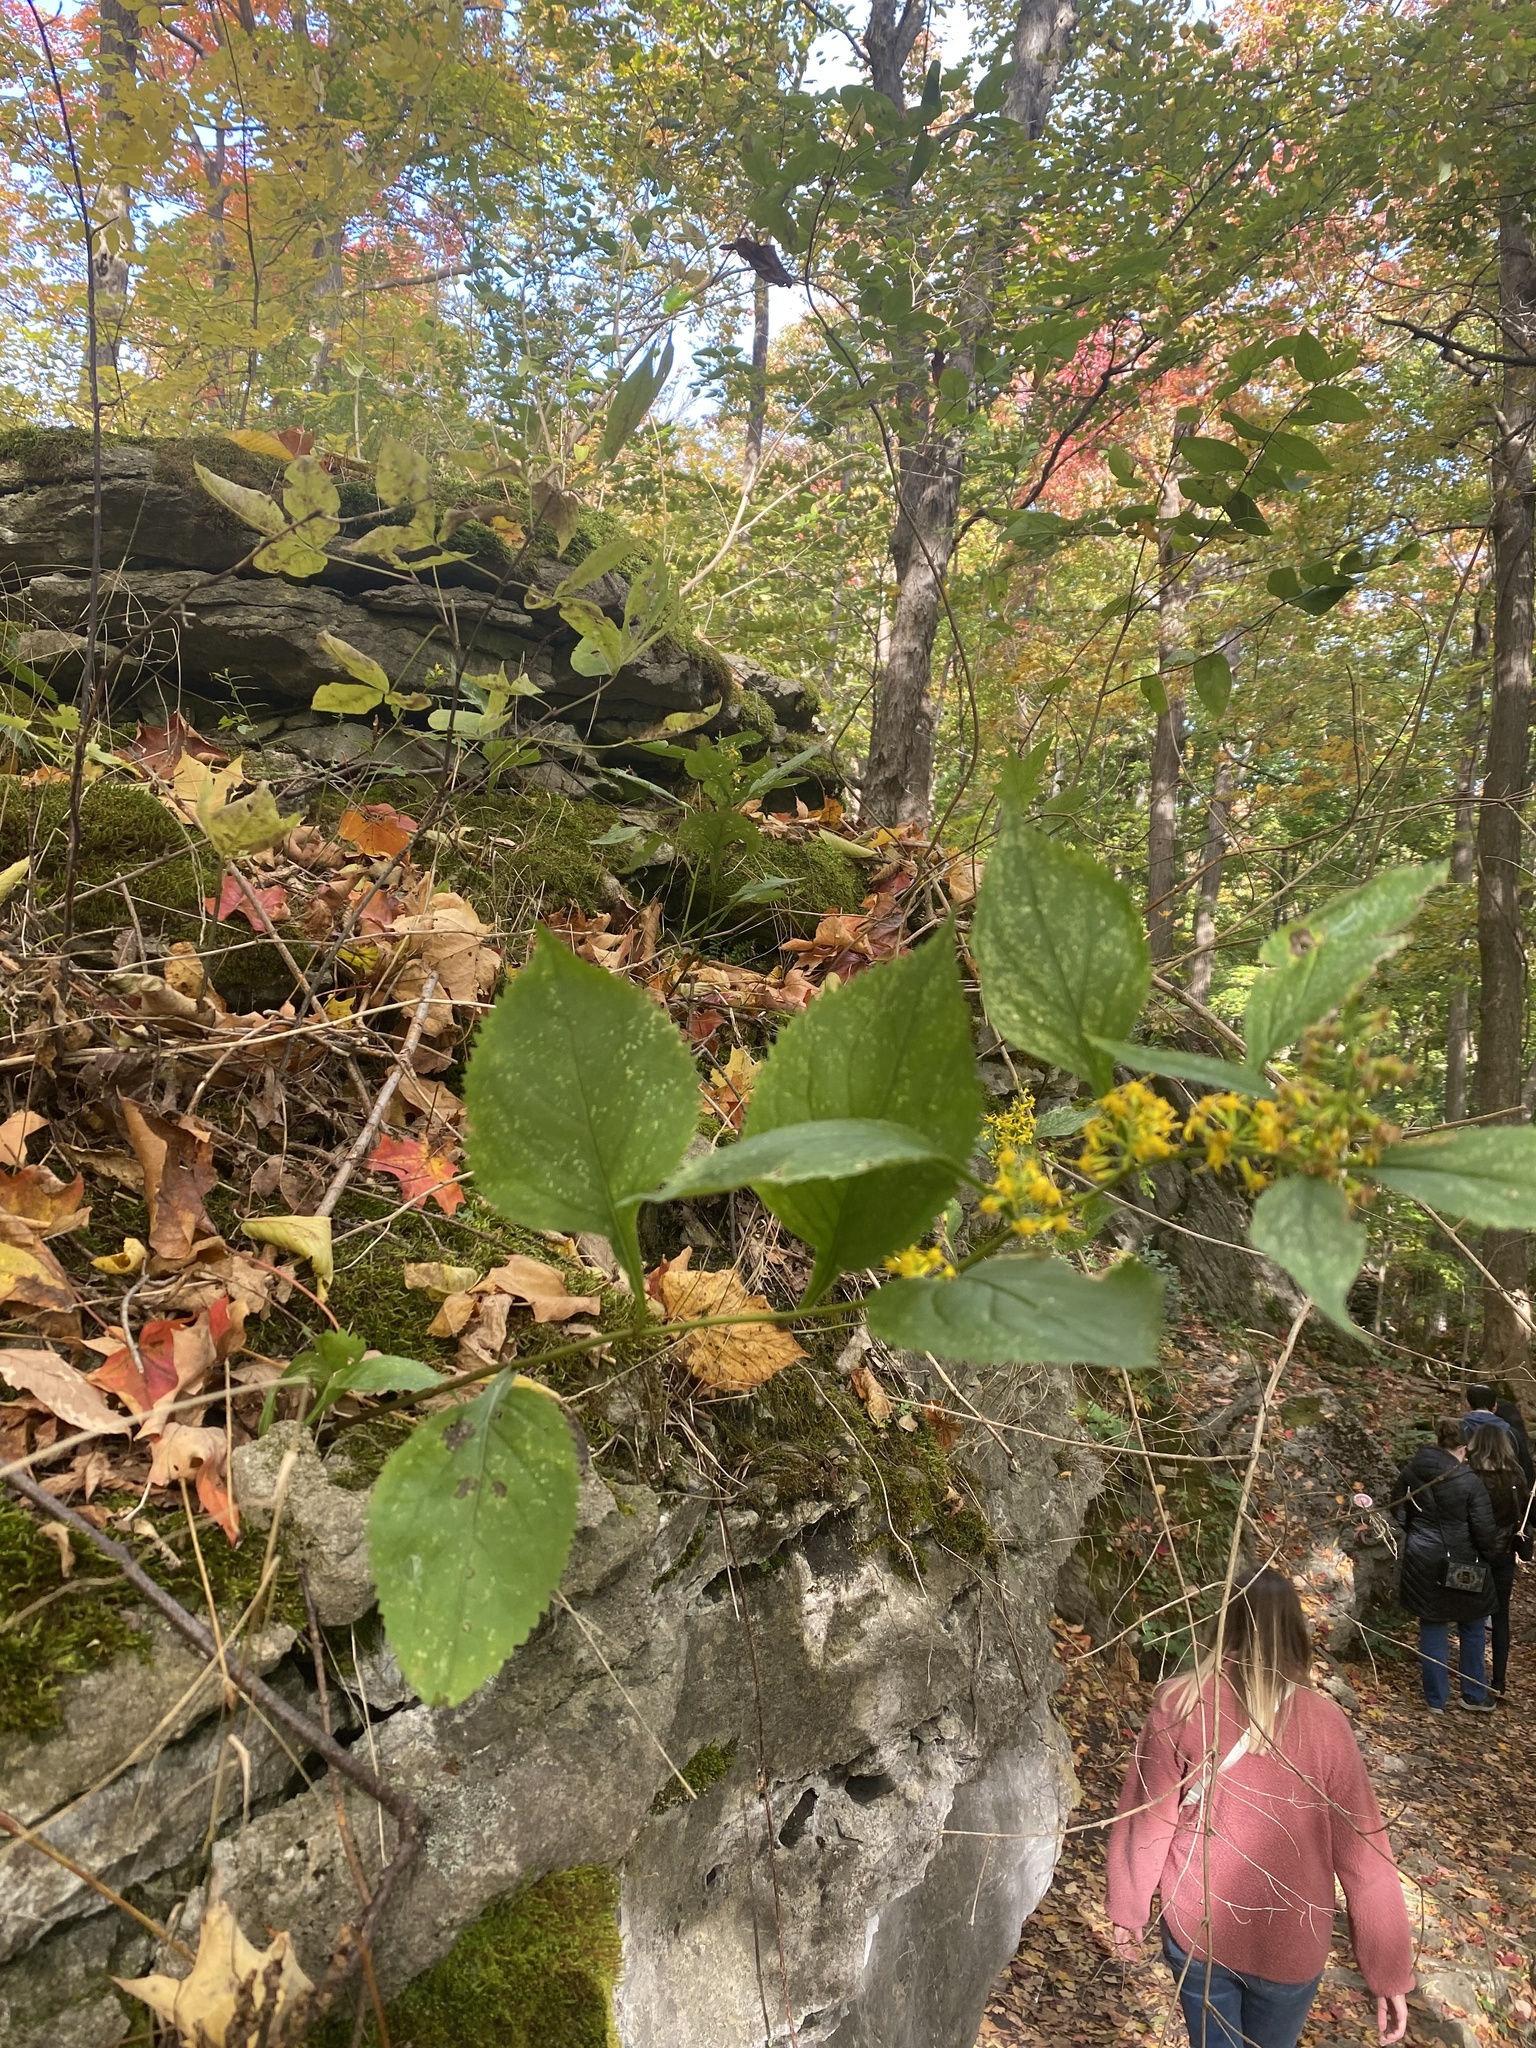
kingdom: Plantae
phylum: Tracheophyta
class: Magnoliopsida
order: Asterales
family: Asteraceae
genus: Solidago
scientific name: Solidago flexicaulis
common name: Zig-zag goldenrod
